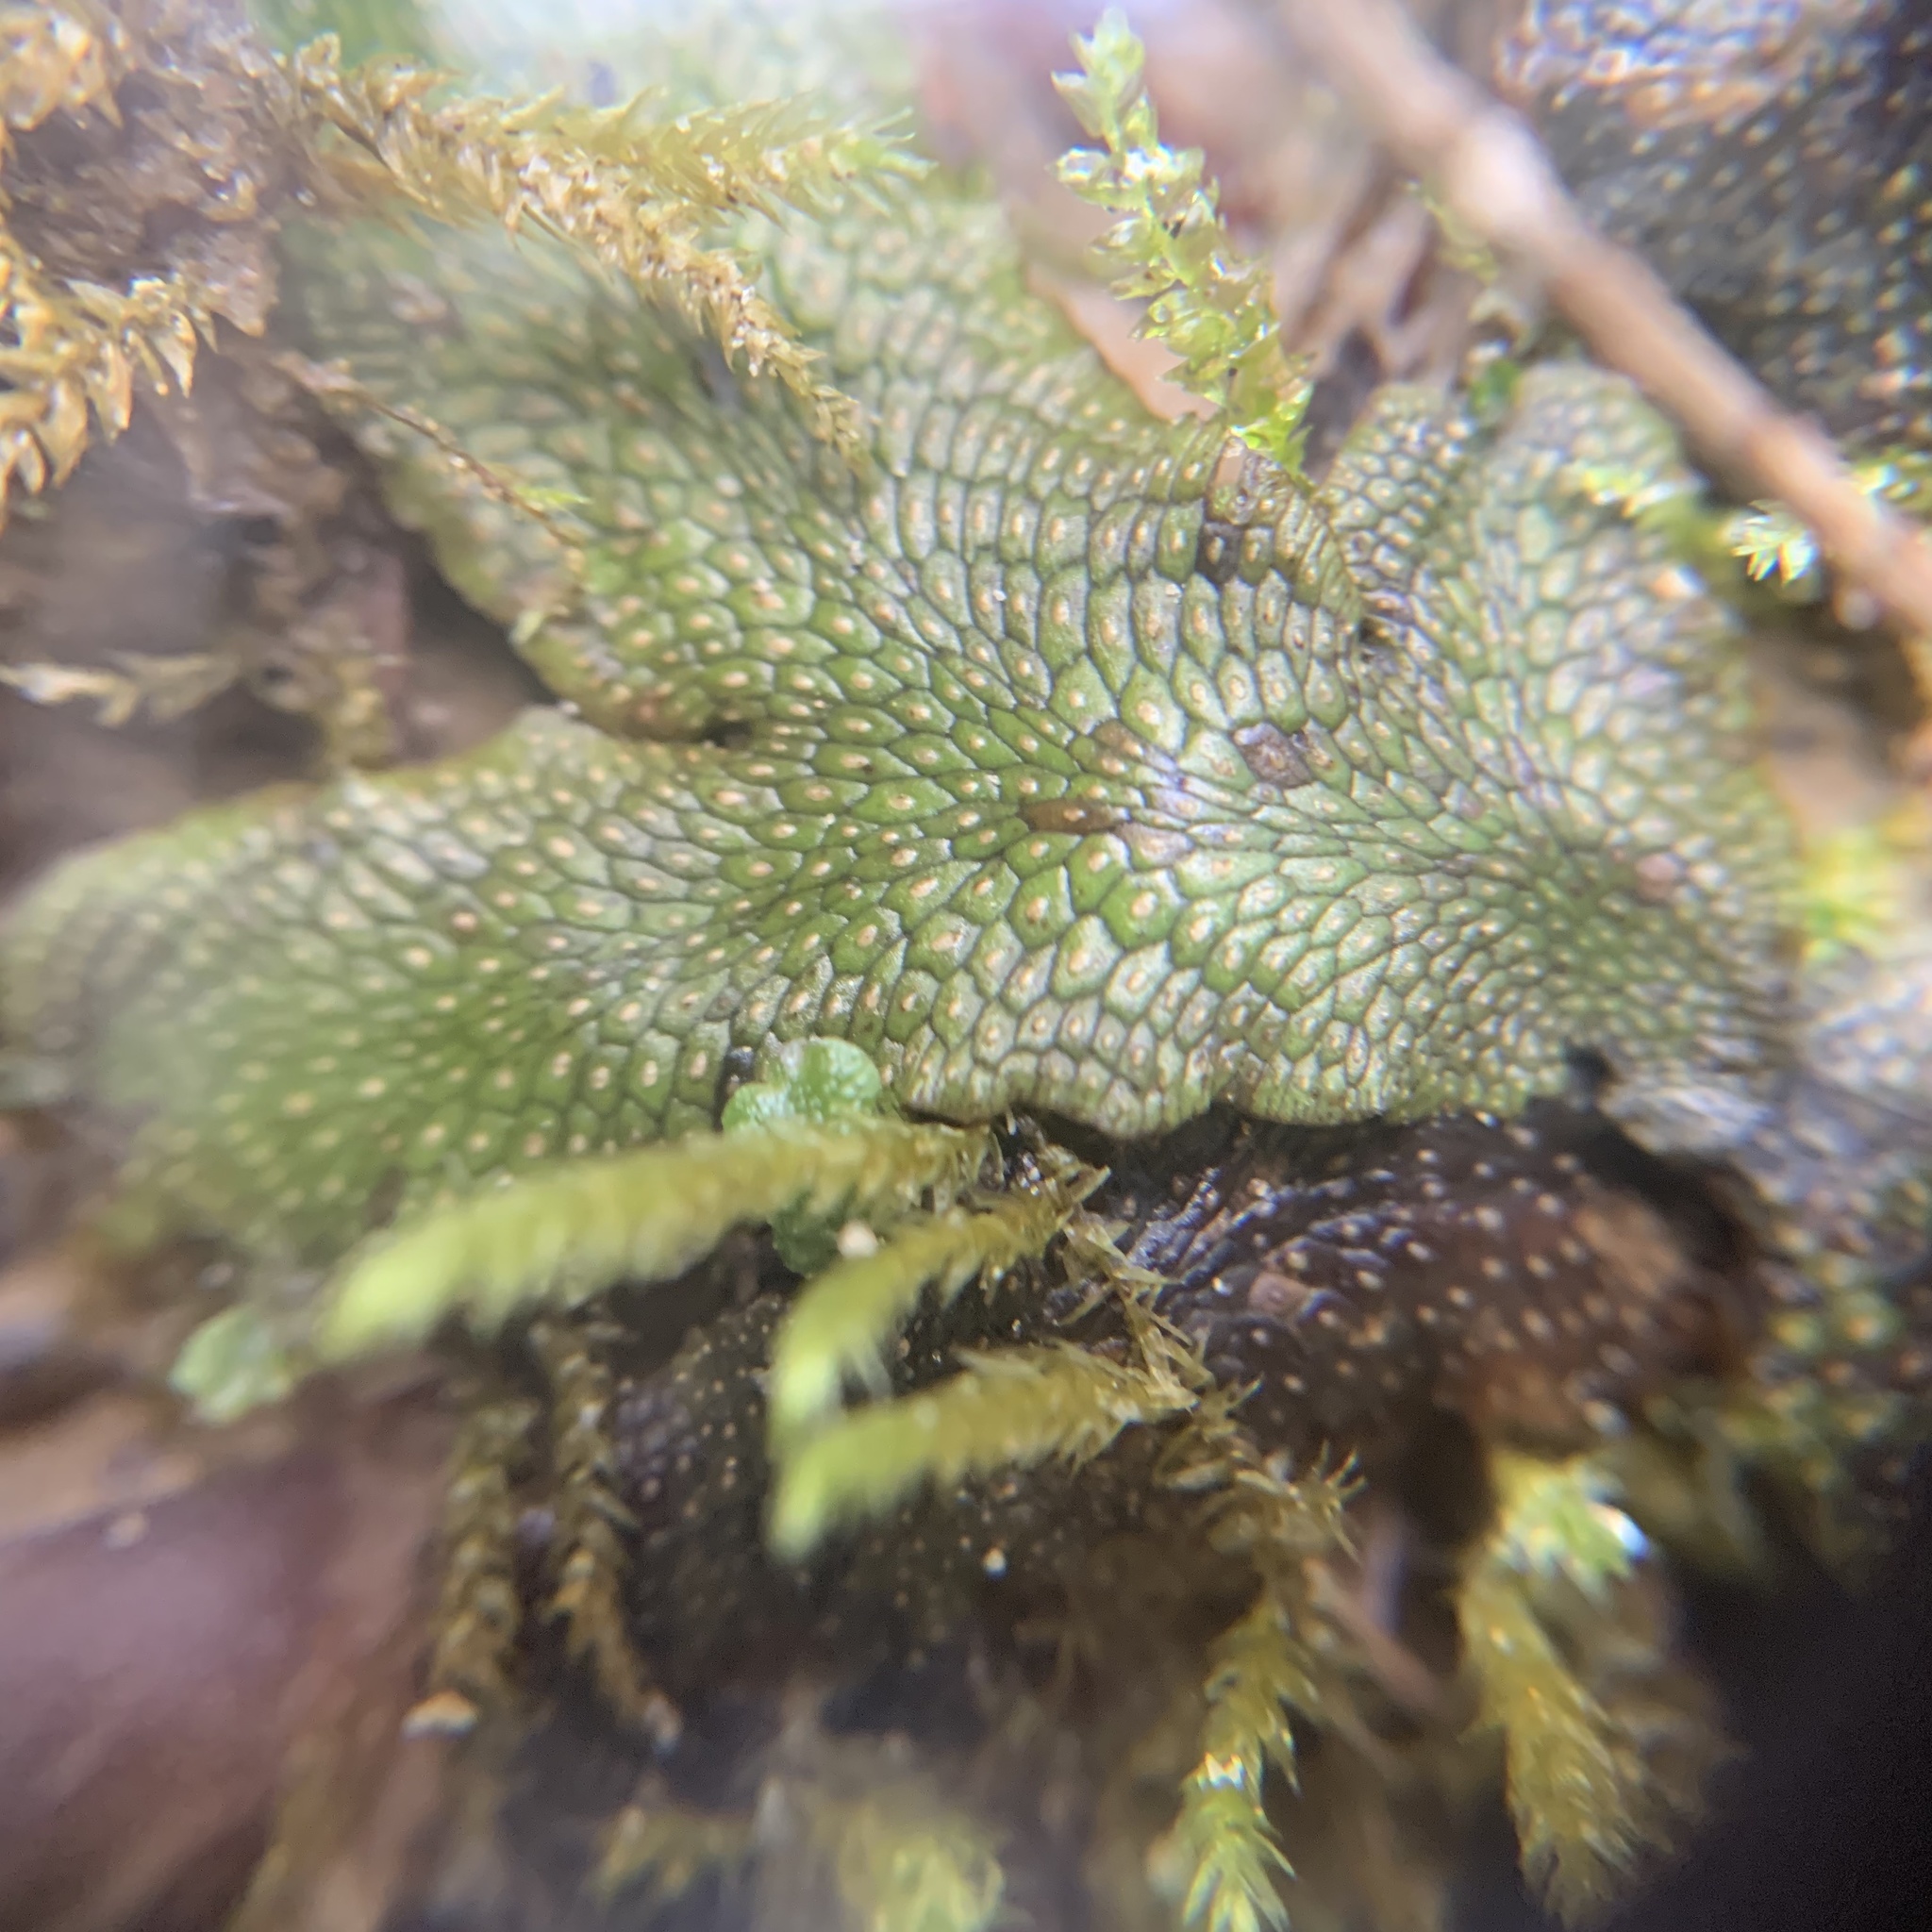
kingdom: Plantae
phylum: Marchantiophyta
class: Marchantiopsida
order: Marchantiales
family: Conocephalaceae
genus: Conocephalum
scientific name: Conocephalum salebrosum
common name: Cat-tongue liverwort
